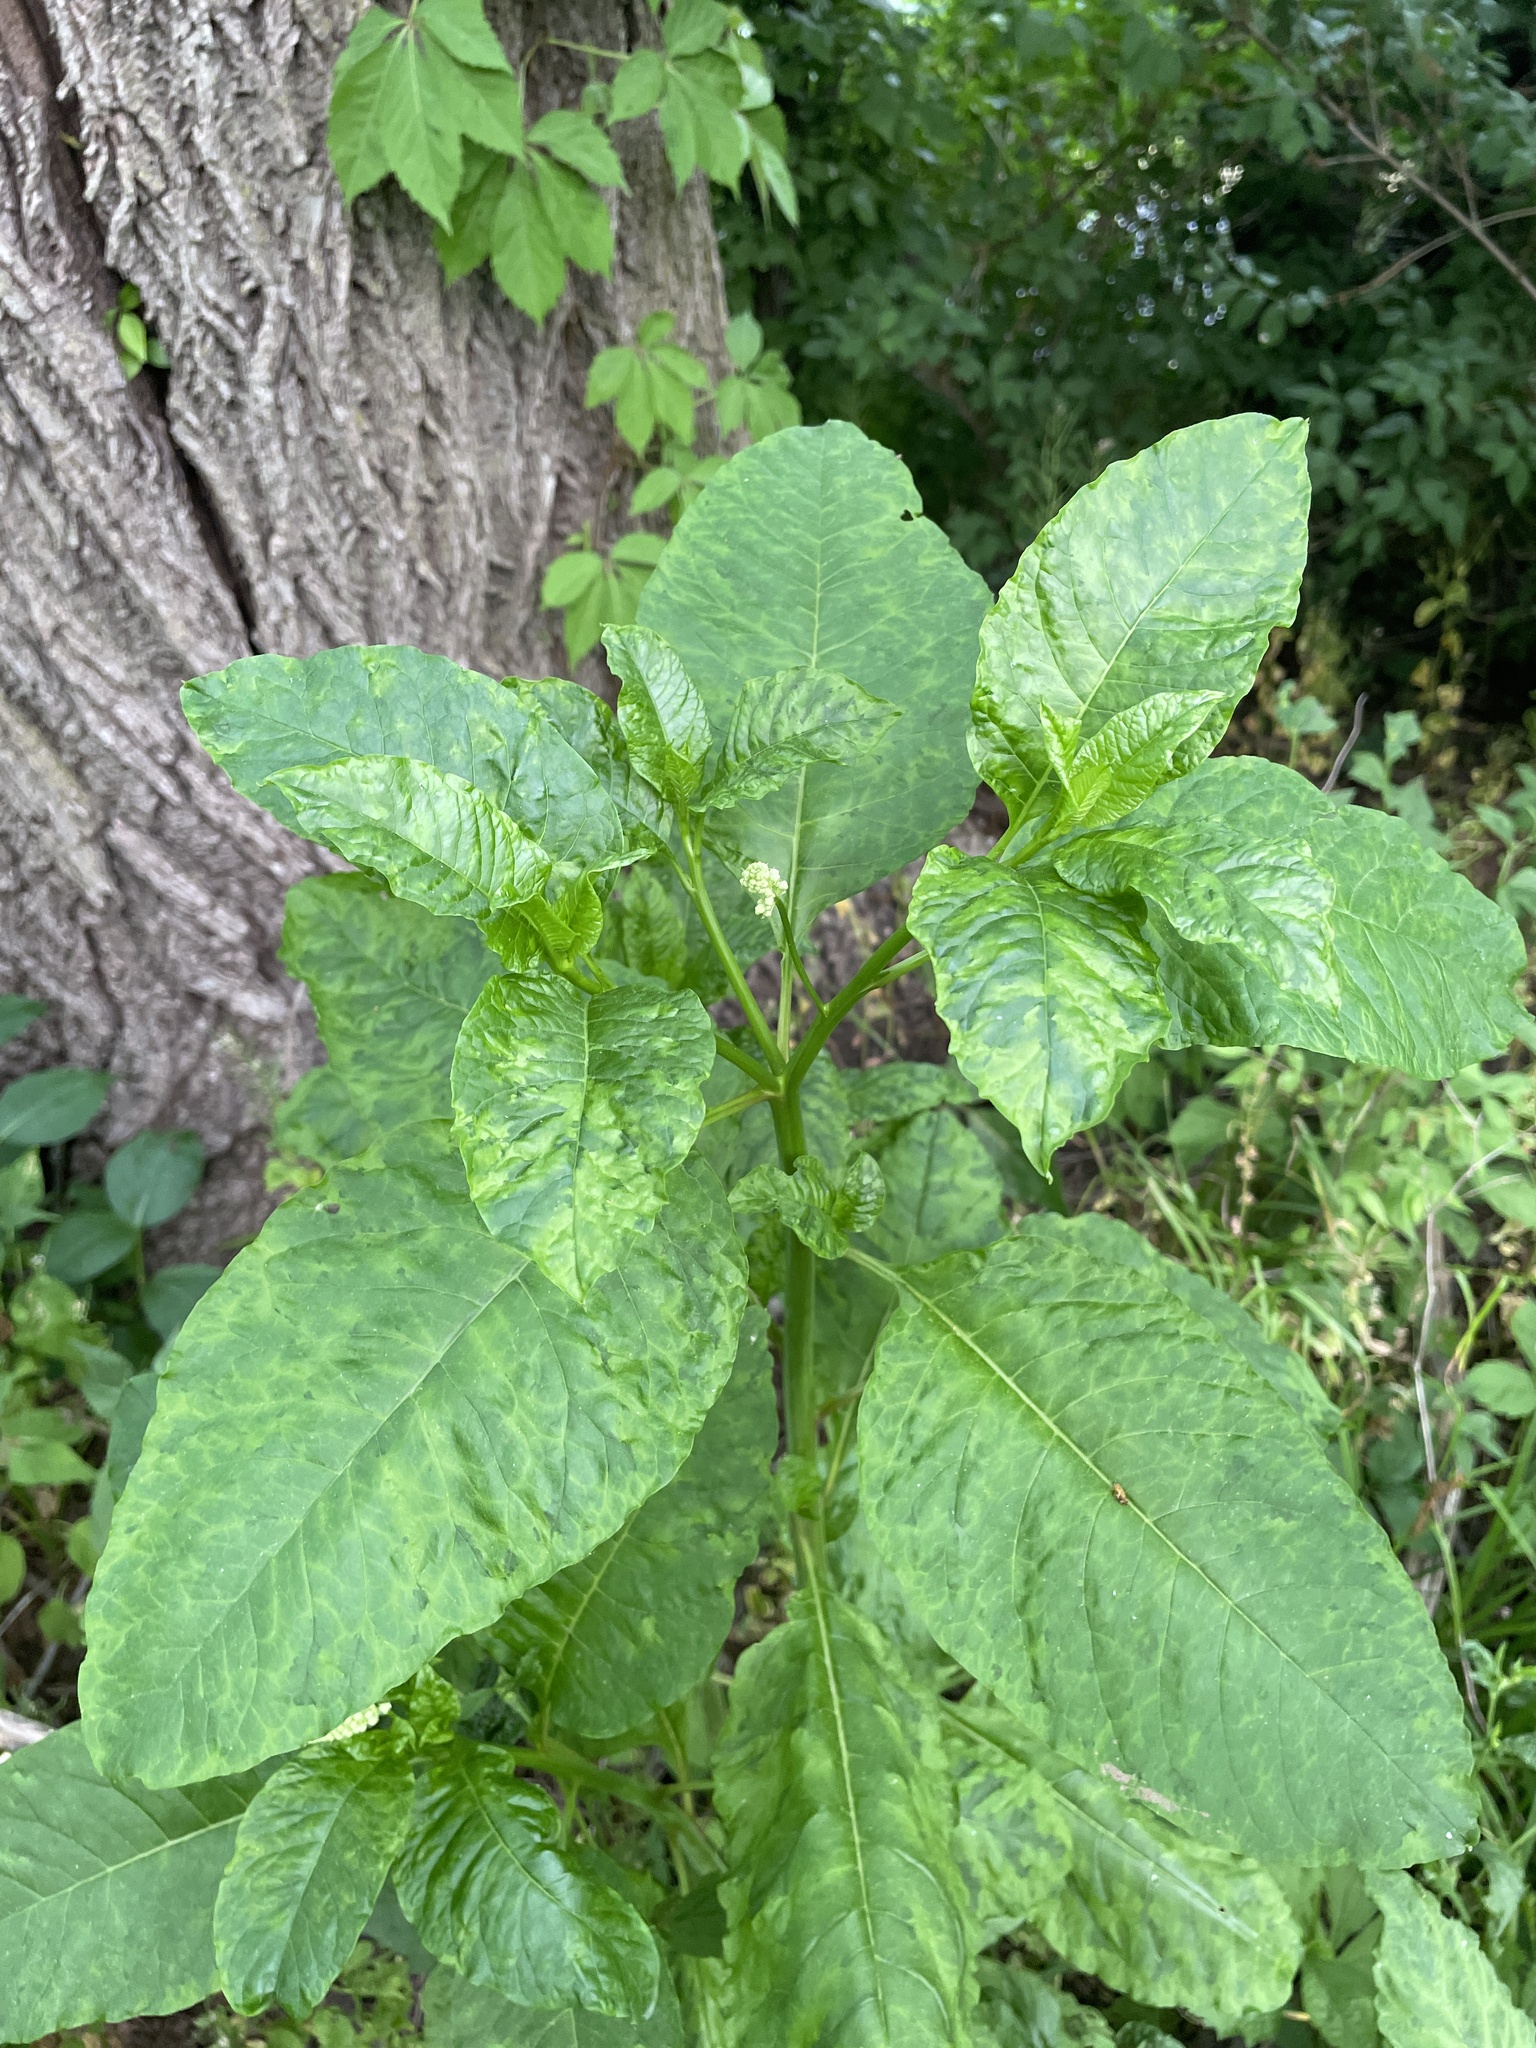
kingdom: Plantae
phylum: Tracheophyta
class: Magnoliopsida
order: Caryophyllales
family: Phytolaccaceae
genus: Phytolacca
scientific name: Phytolacca americana
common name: American pokeweed
